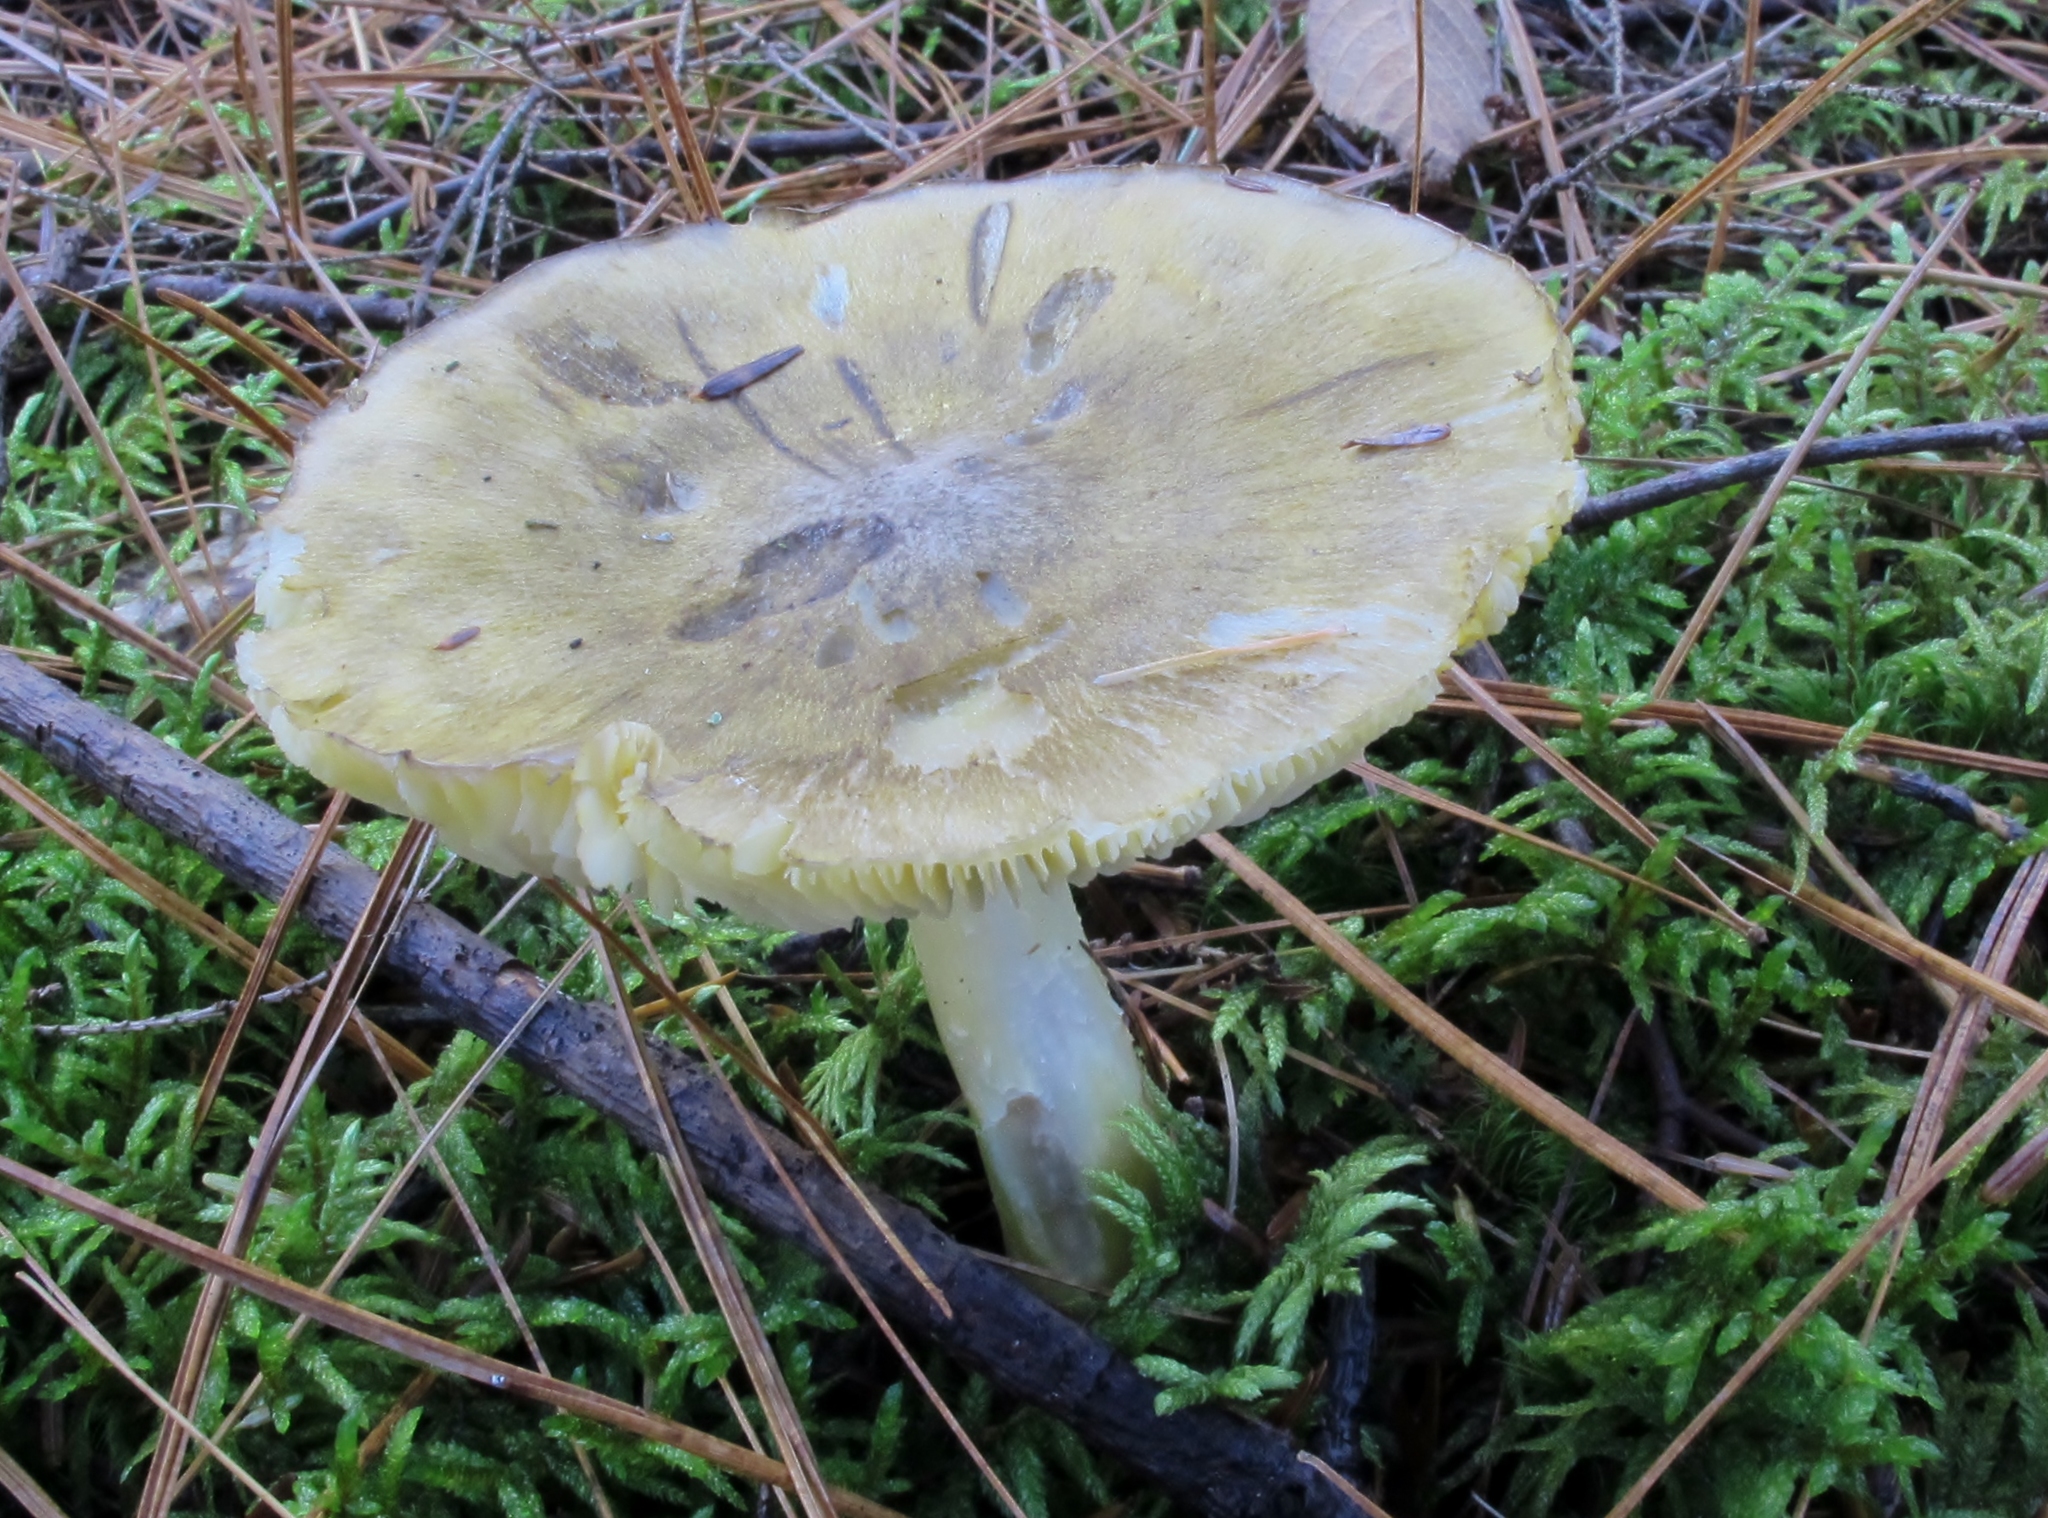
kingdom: Fungi
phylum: Basidiomycota
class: Agaricomycetes
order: Agaricales
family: Tricholomataceae
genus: Tricholoma
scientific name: Tricholoma subluteum
